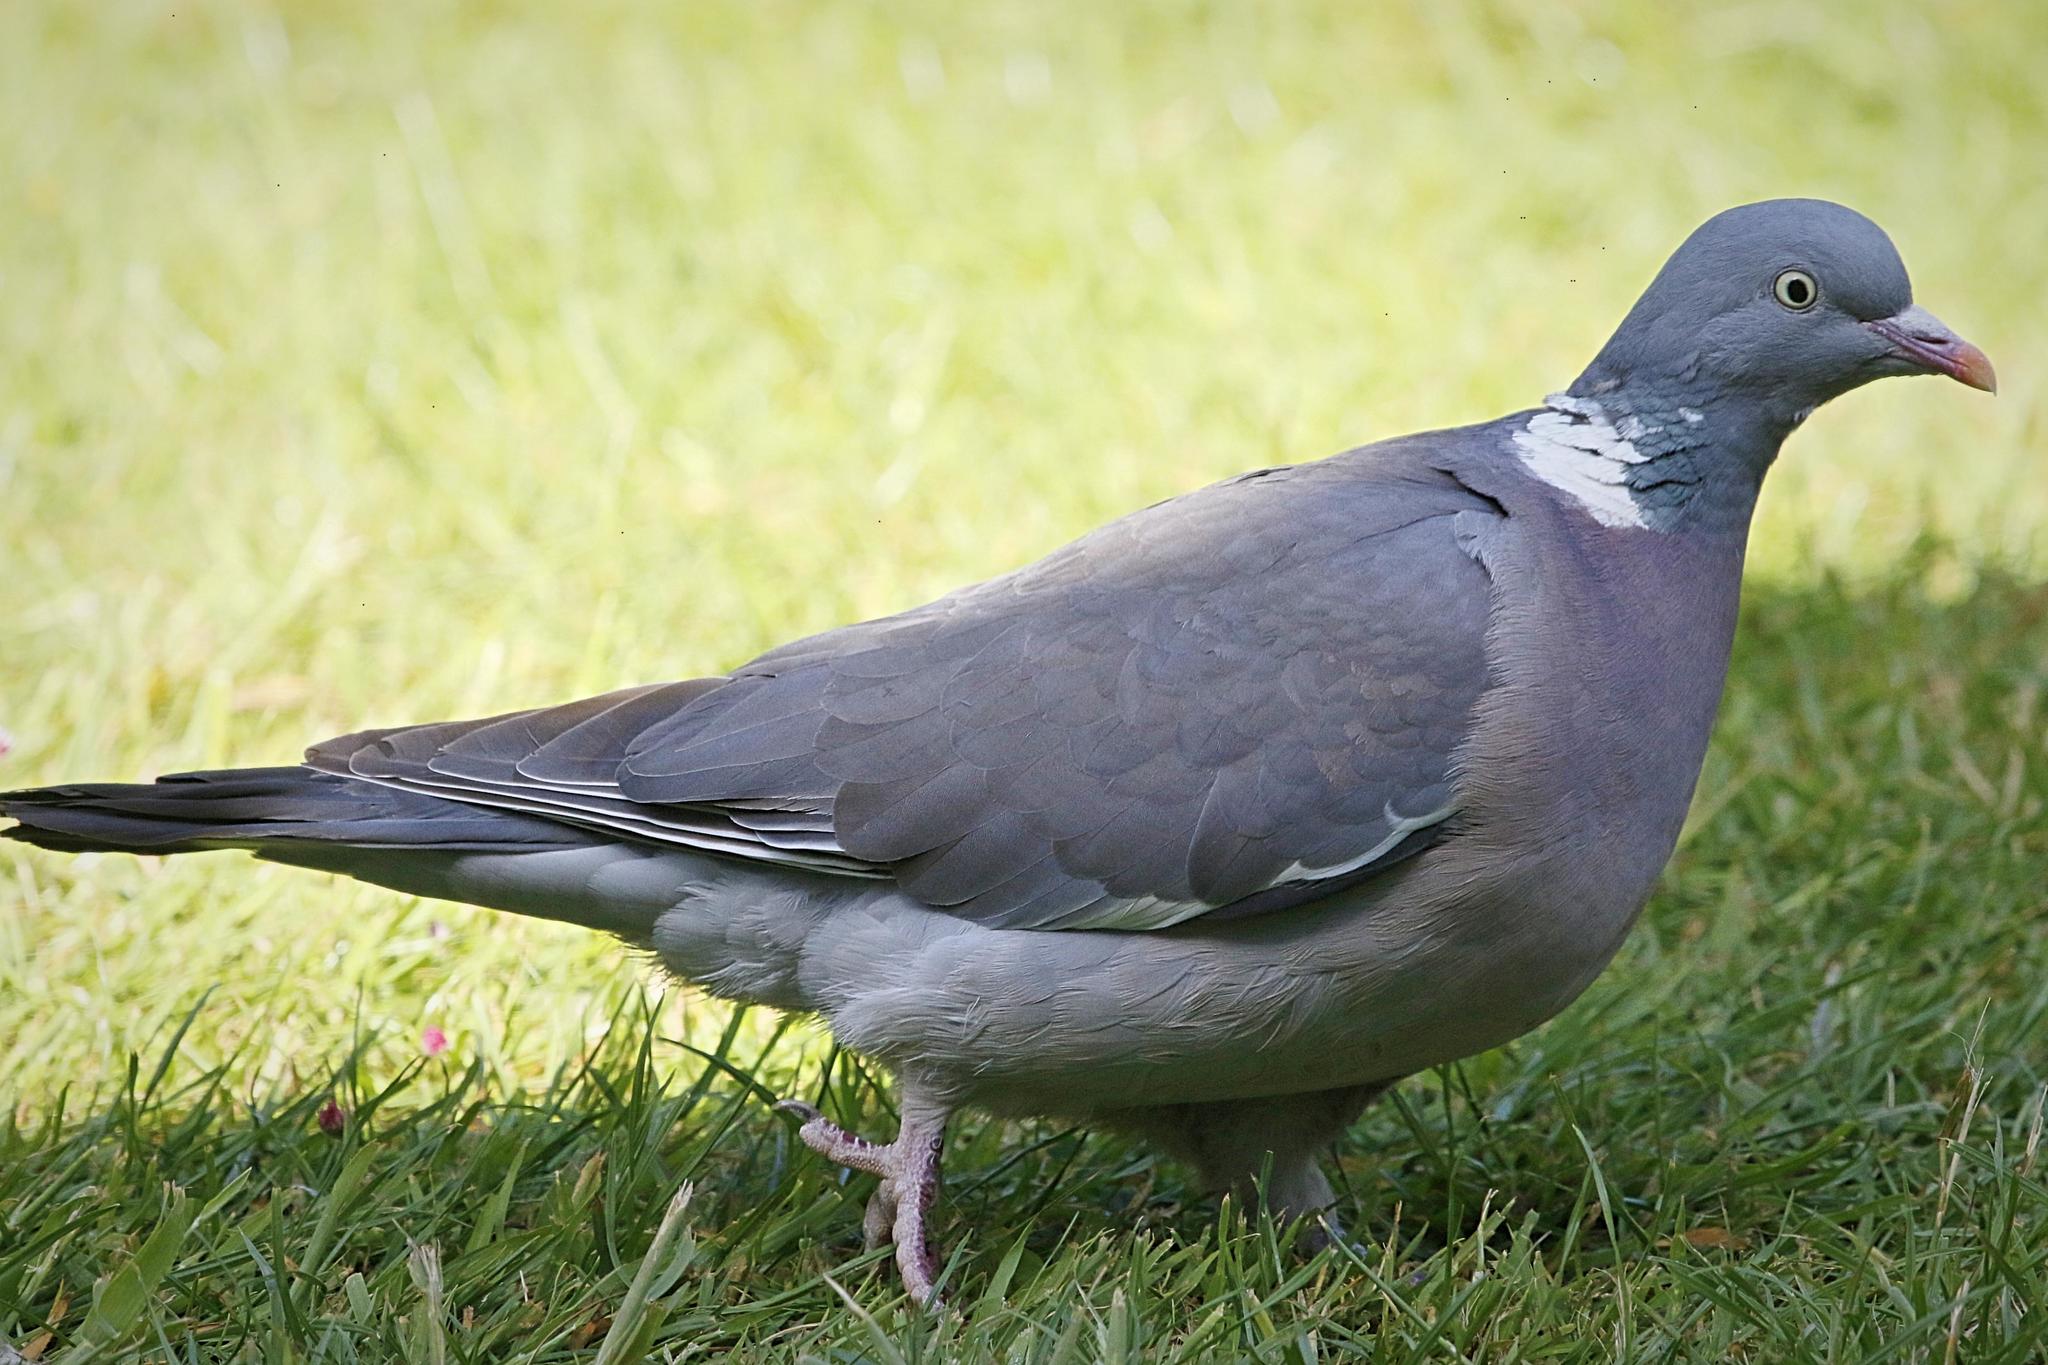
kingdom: Animalia
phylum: Chordata
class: Aves
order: Columbiformes
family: Columbidae
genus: Columba
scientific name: Columba palumbus
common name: Common wood pigeon
